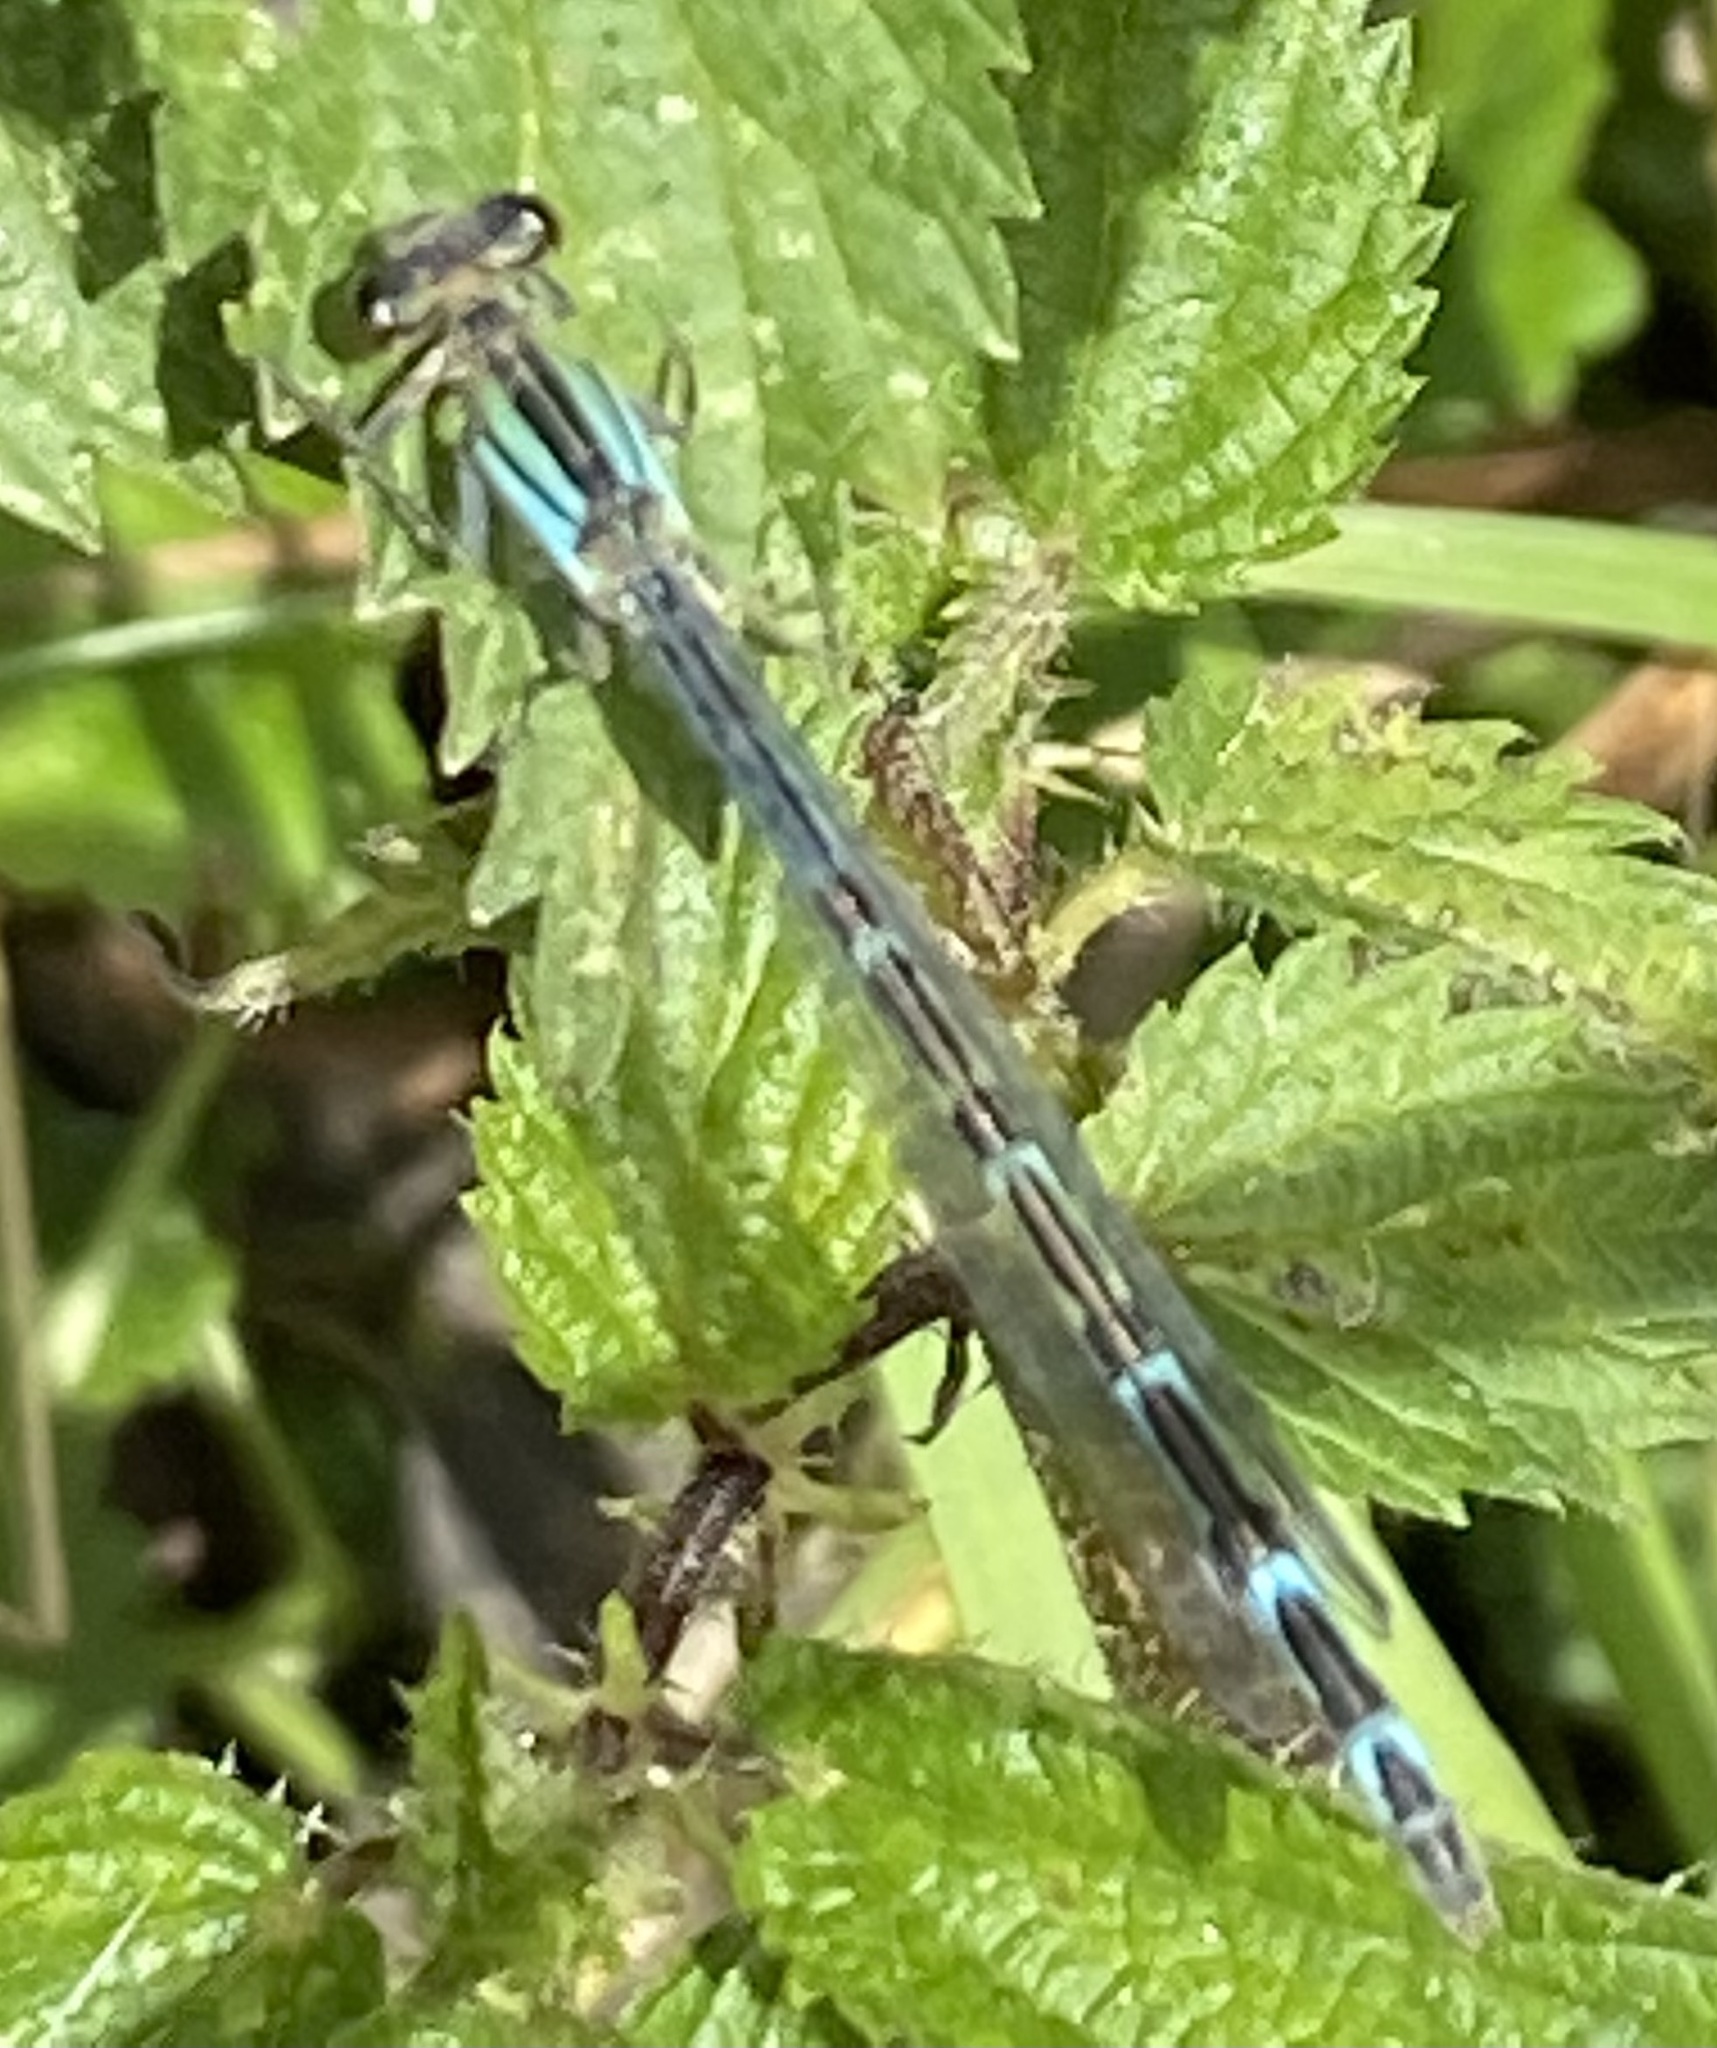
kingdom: Animalia
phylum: Arthropoda
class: Insecta
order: Odonata
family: Coenagrionidae
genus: Enallagma
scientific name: Enallagma cyathigerum
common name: Common blue damselfly
